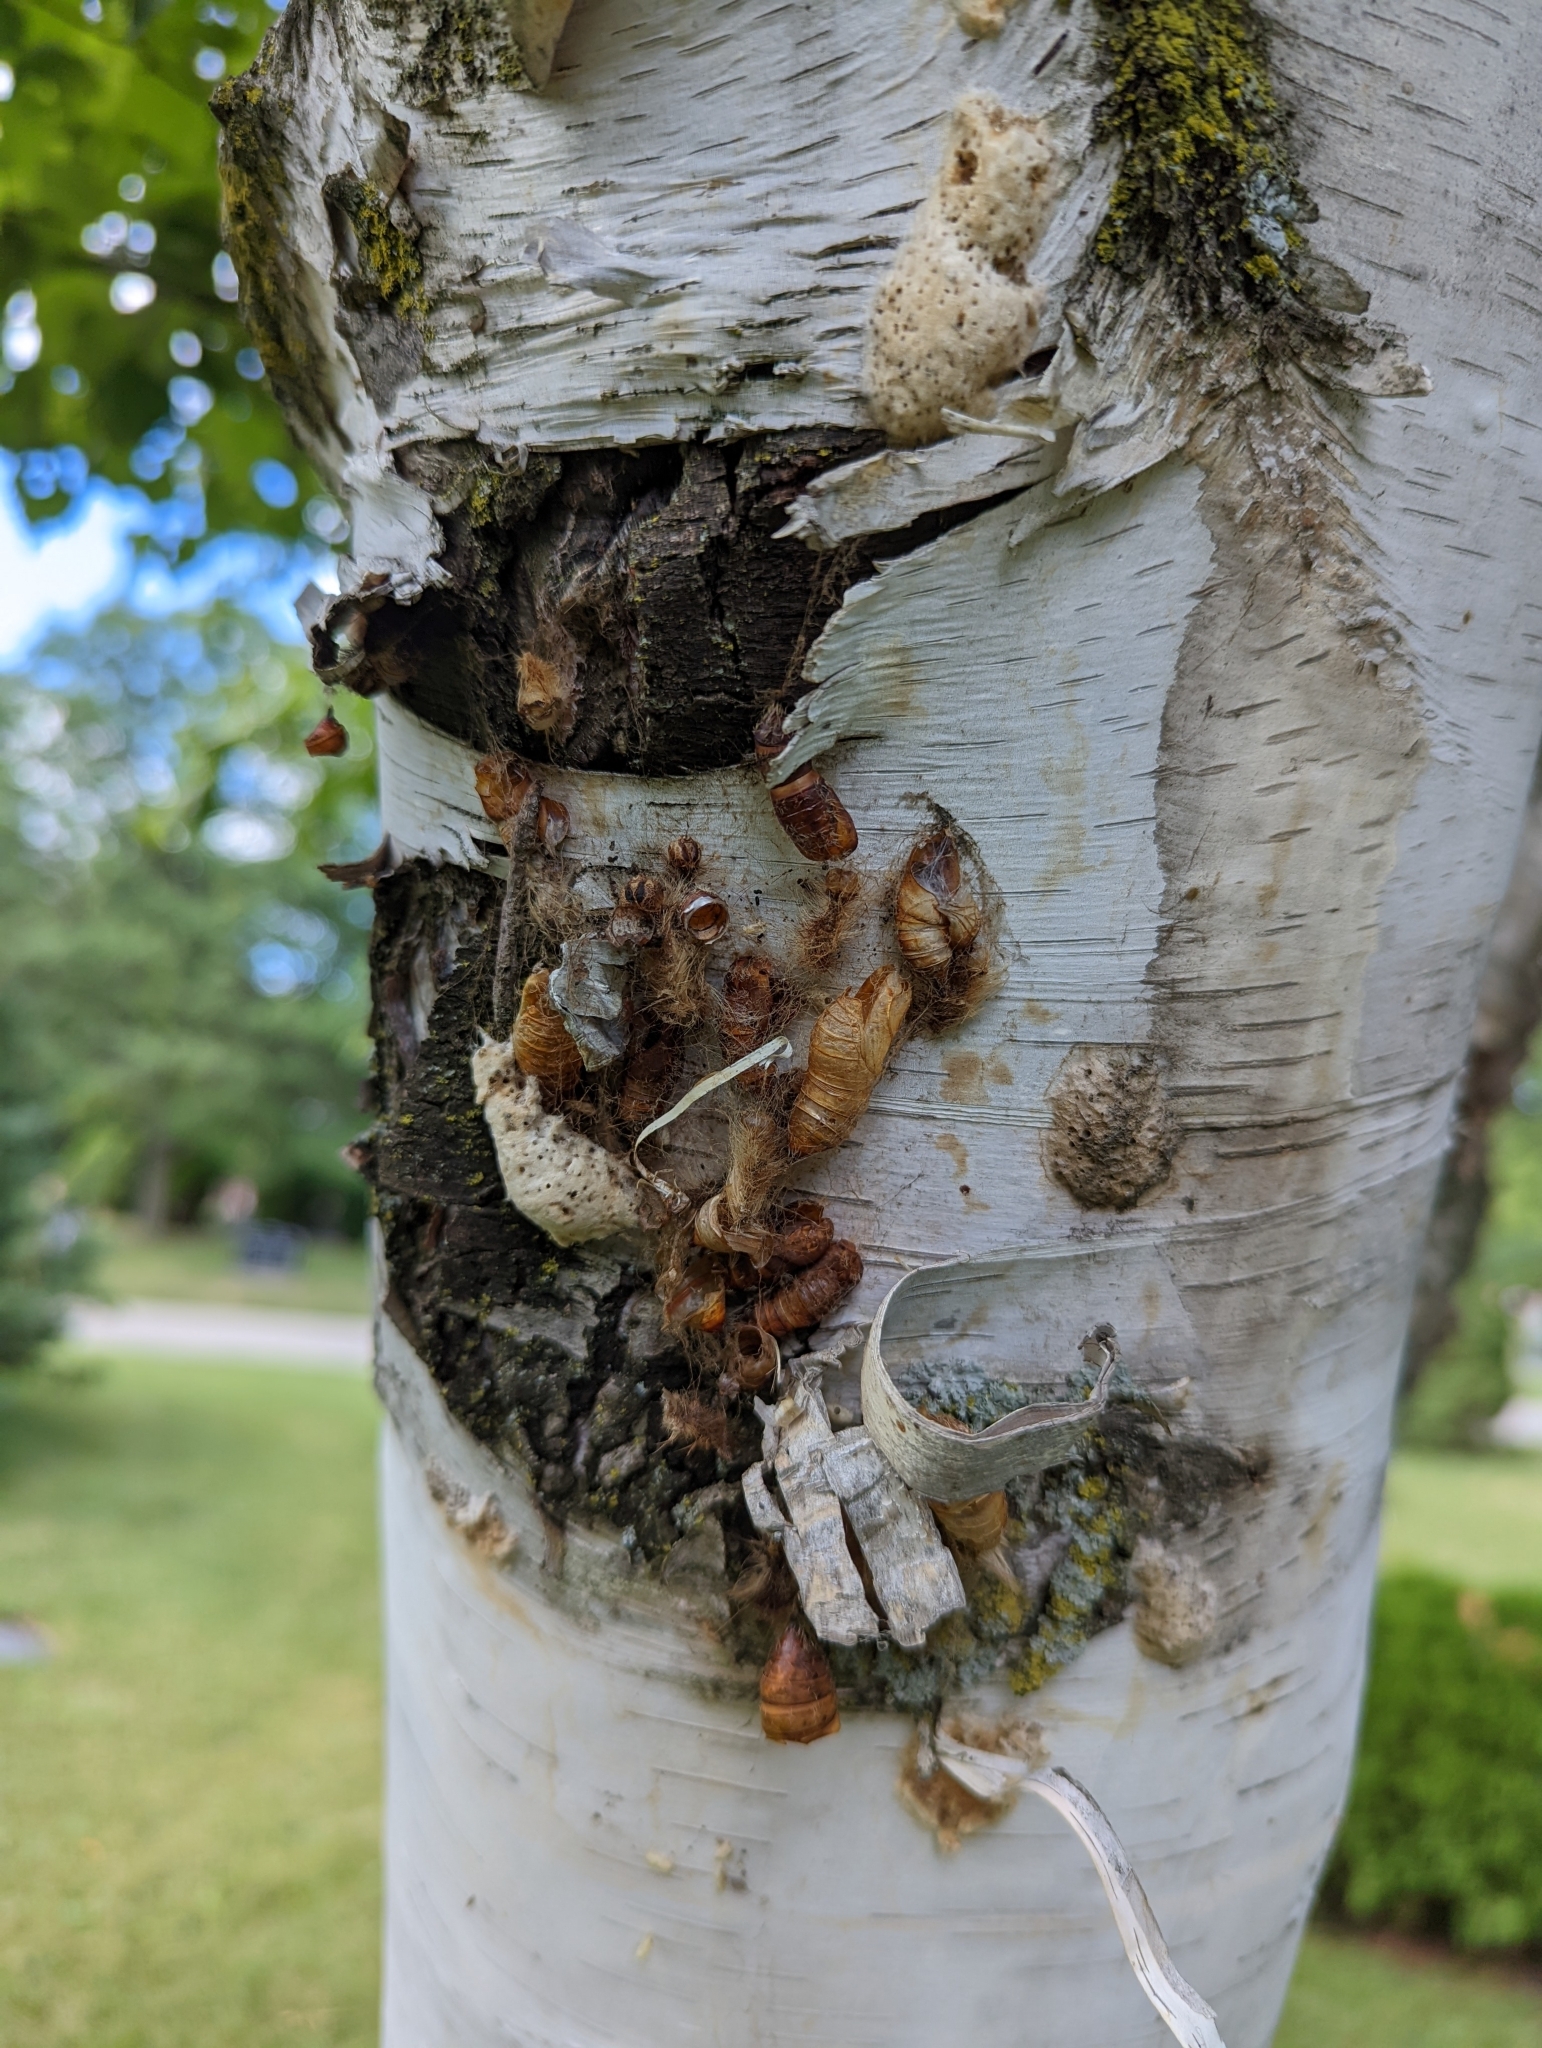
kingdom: Animalia
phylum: Arthropoda
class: Insecta
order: Lepidoptera
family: Erebidae
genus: Lymantria
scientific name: Lymantria dispar
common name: Gypsy moth
